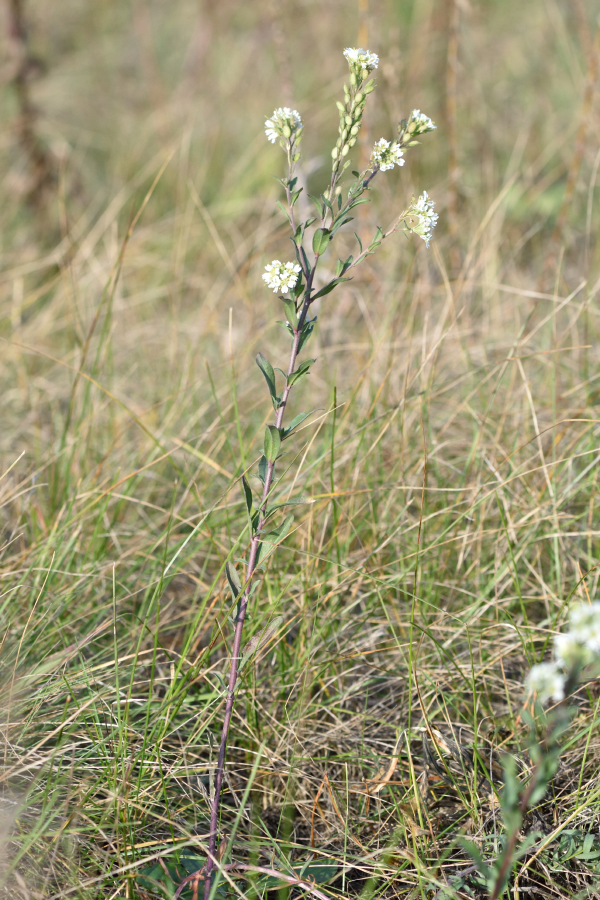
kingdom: Plantae
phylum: Tracheophyta
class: Magnoliopsida
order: Brassicales
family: Brassicaceae
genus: Berteroa
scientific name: Berteroa incana
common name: Hoary alison
